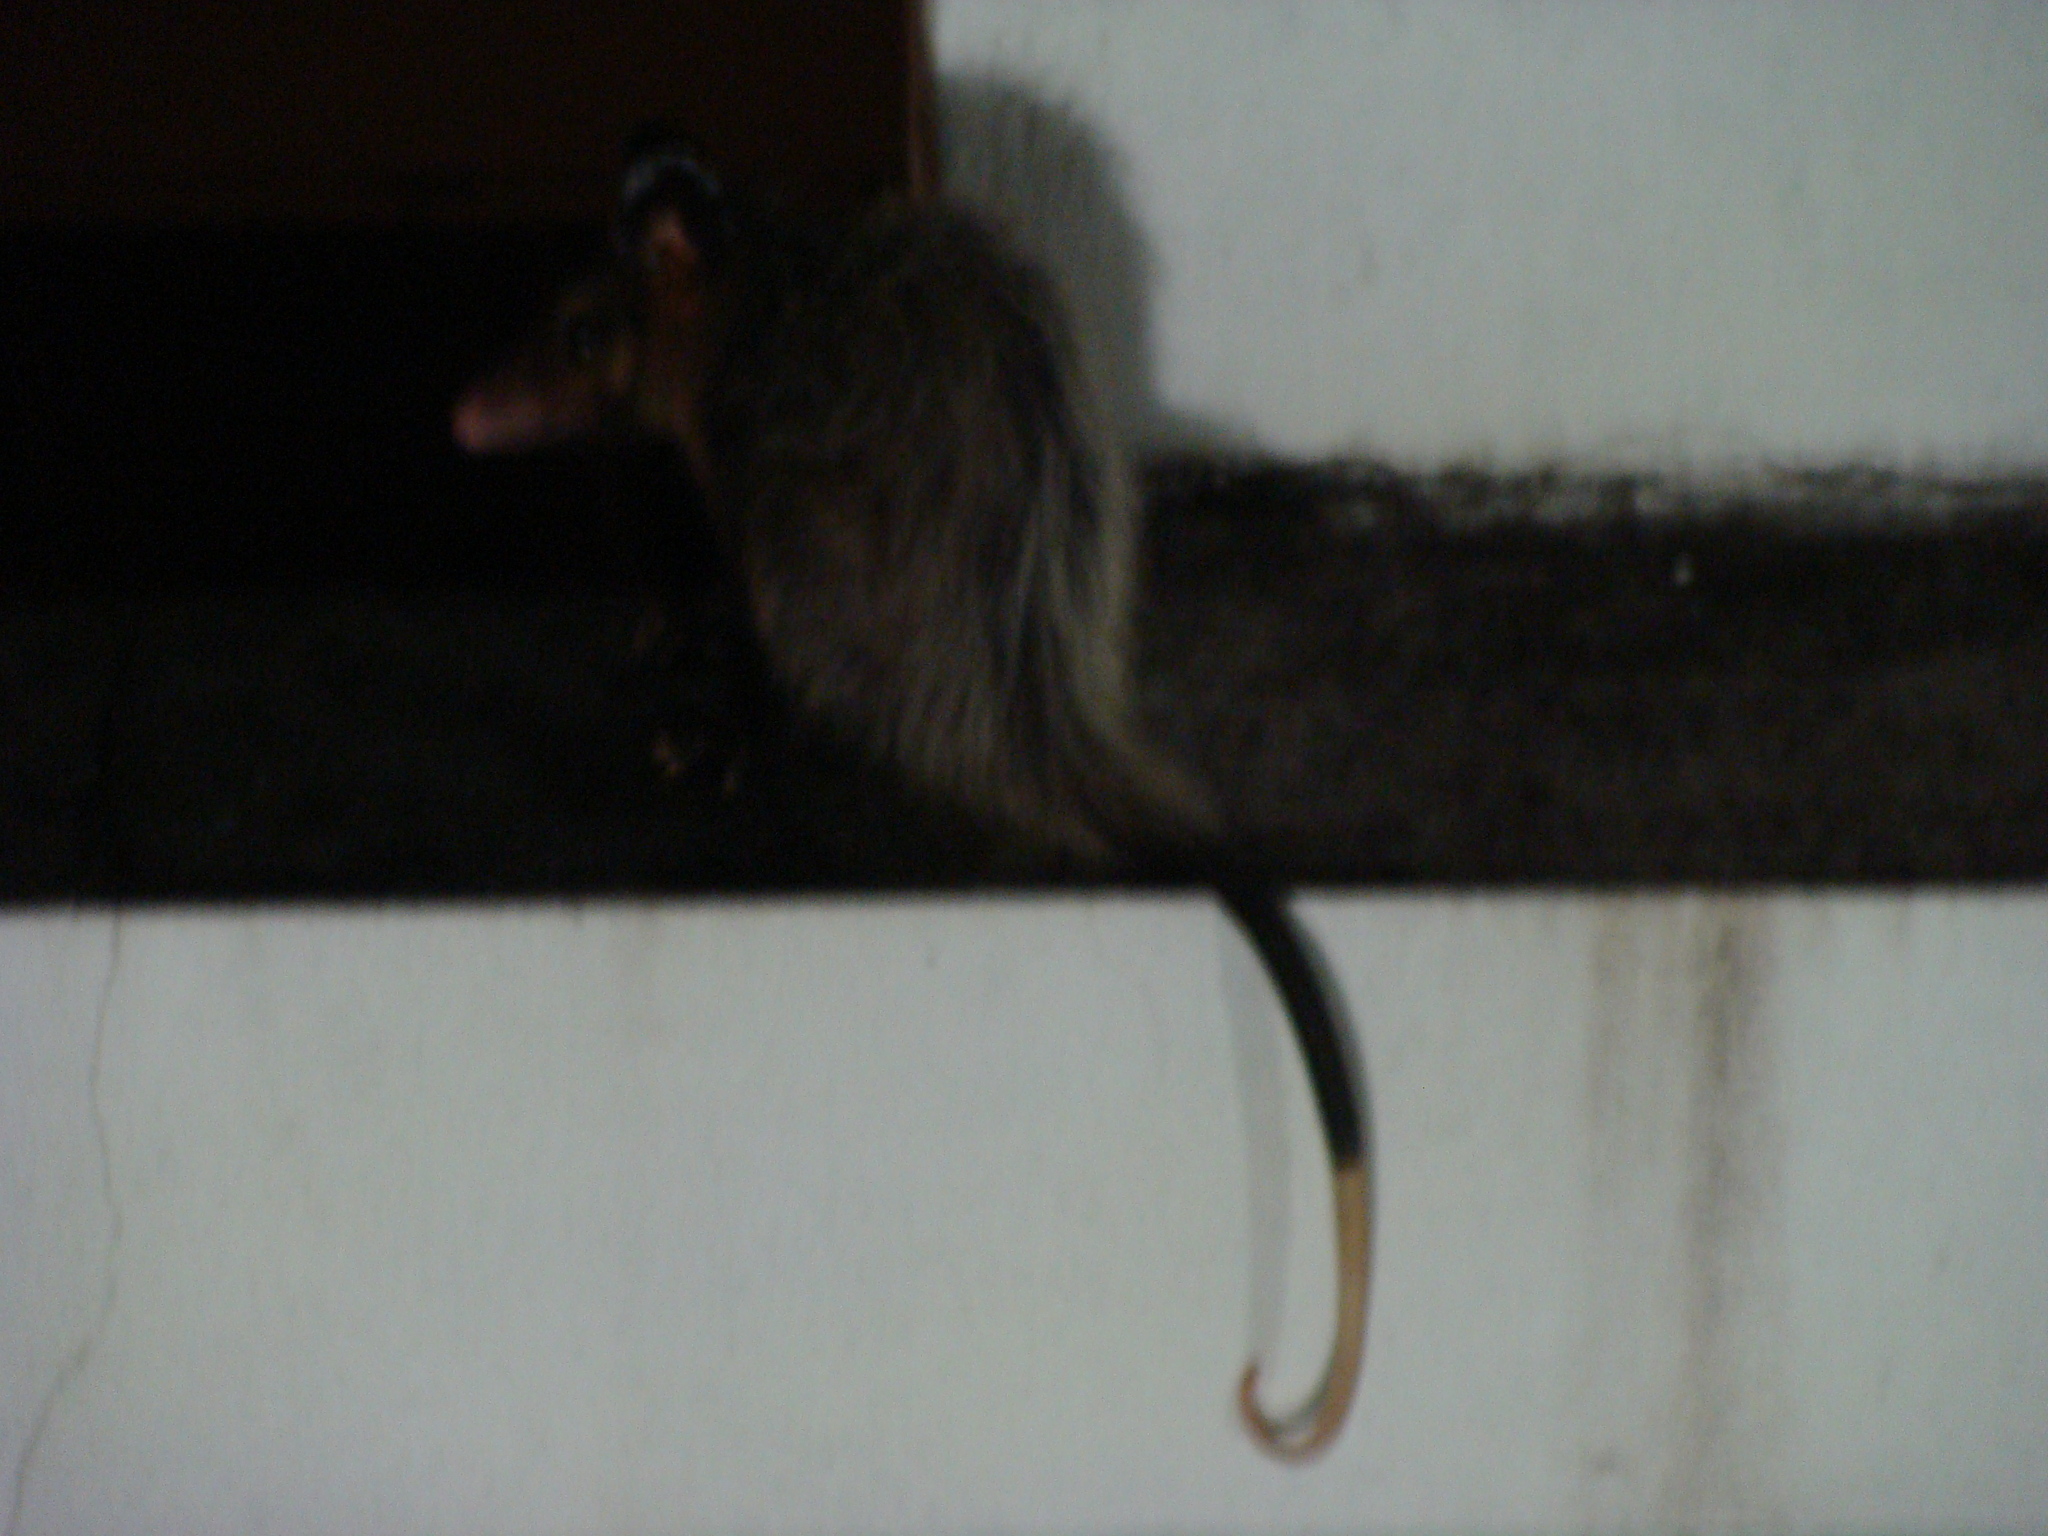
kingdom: Animalia
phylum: Chordata
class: Mammalia
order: Didelphimorphia
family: Didelphidae
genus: Didelphis
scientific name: Didelphis aurita
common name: Big-eared opossum
